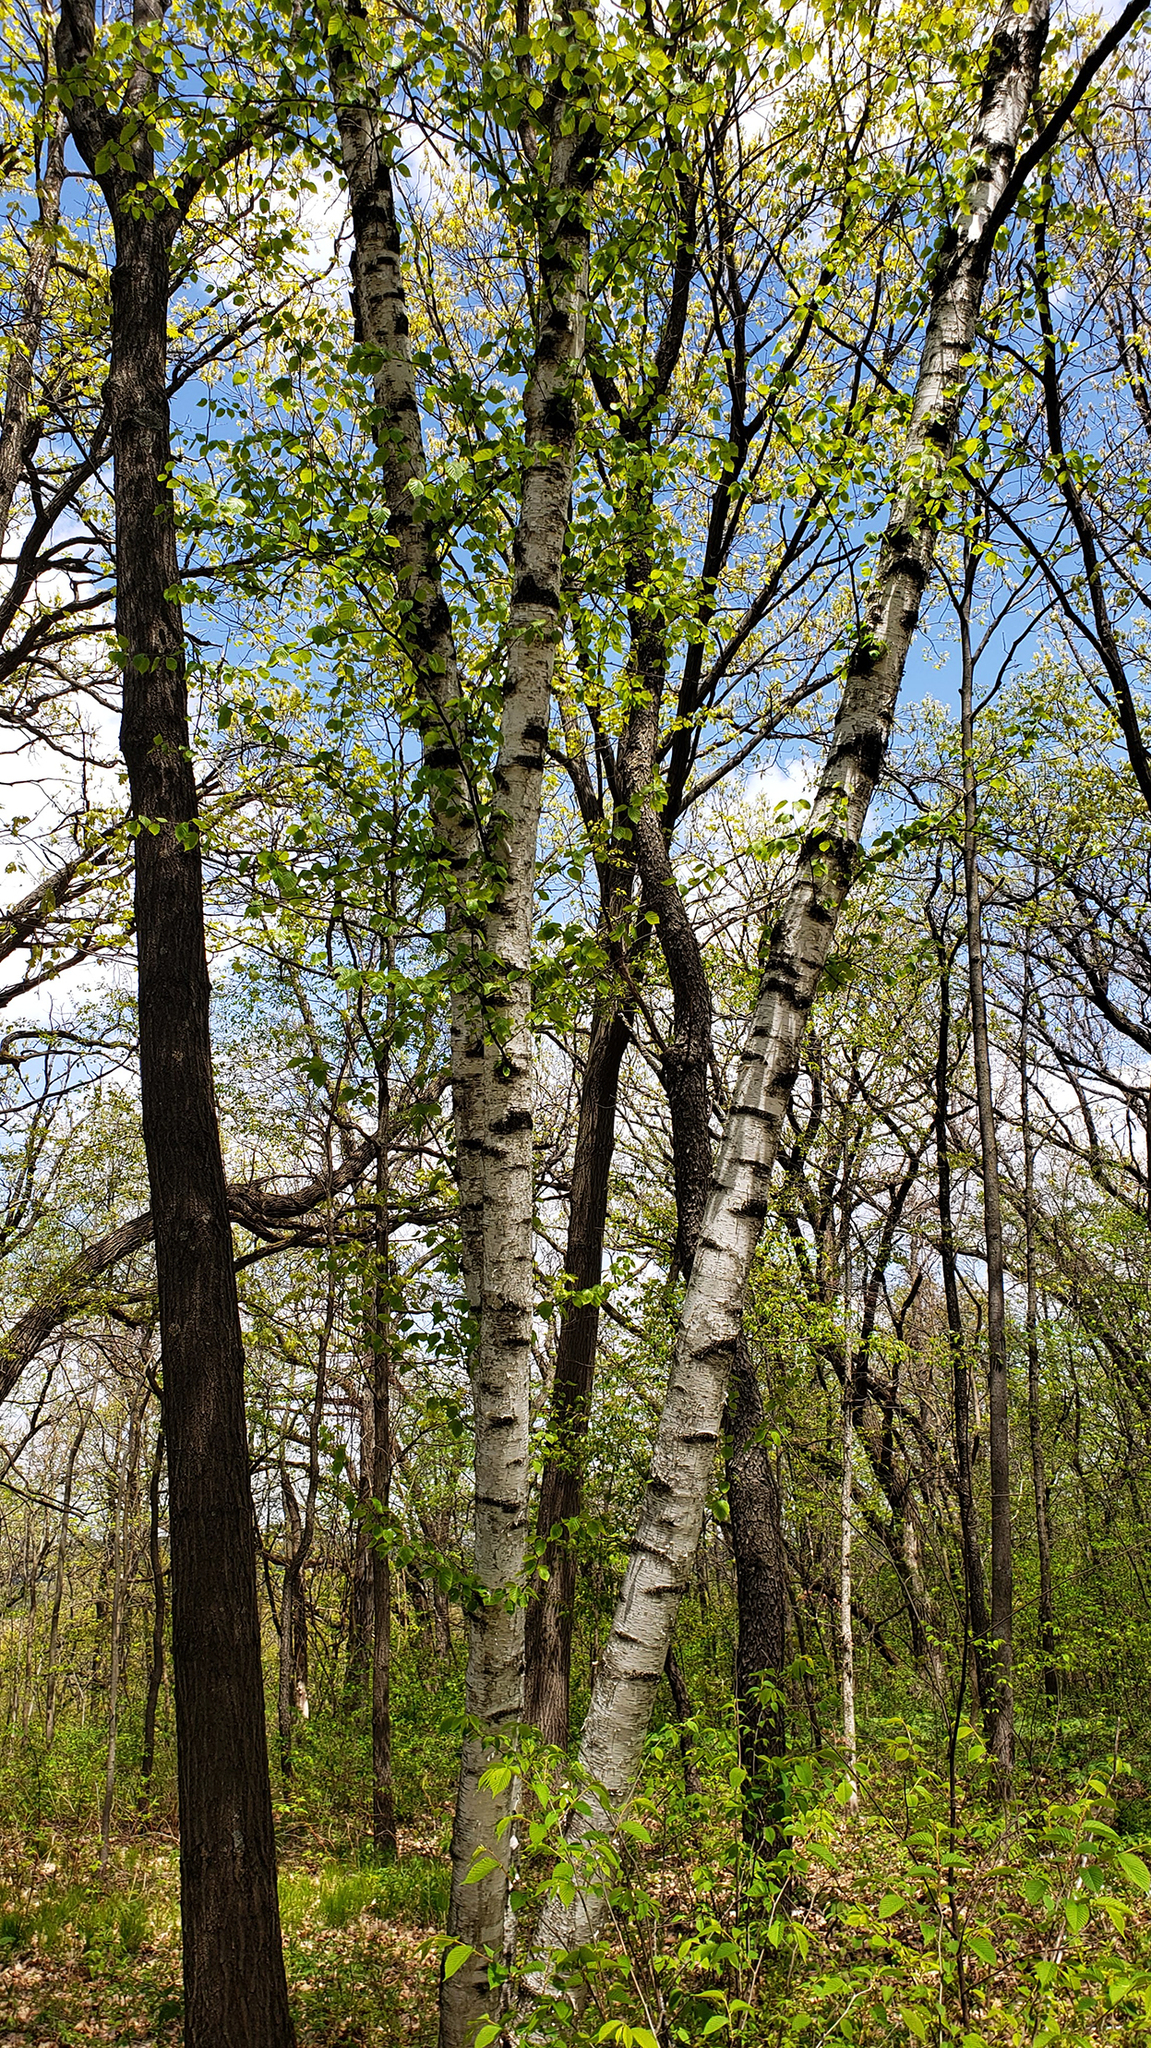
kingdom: Plantae
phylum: Tracheophyta
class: Magnoliopsida
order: Fagales
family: Betulaceae
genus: Betula
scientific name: Betula papyrifera
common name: Paper birch
